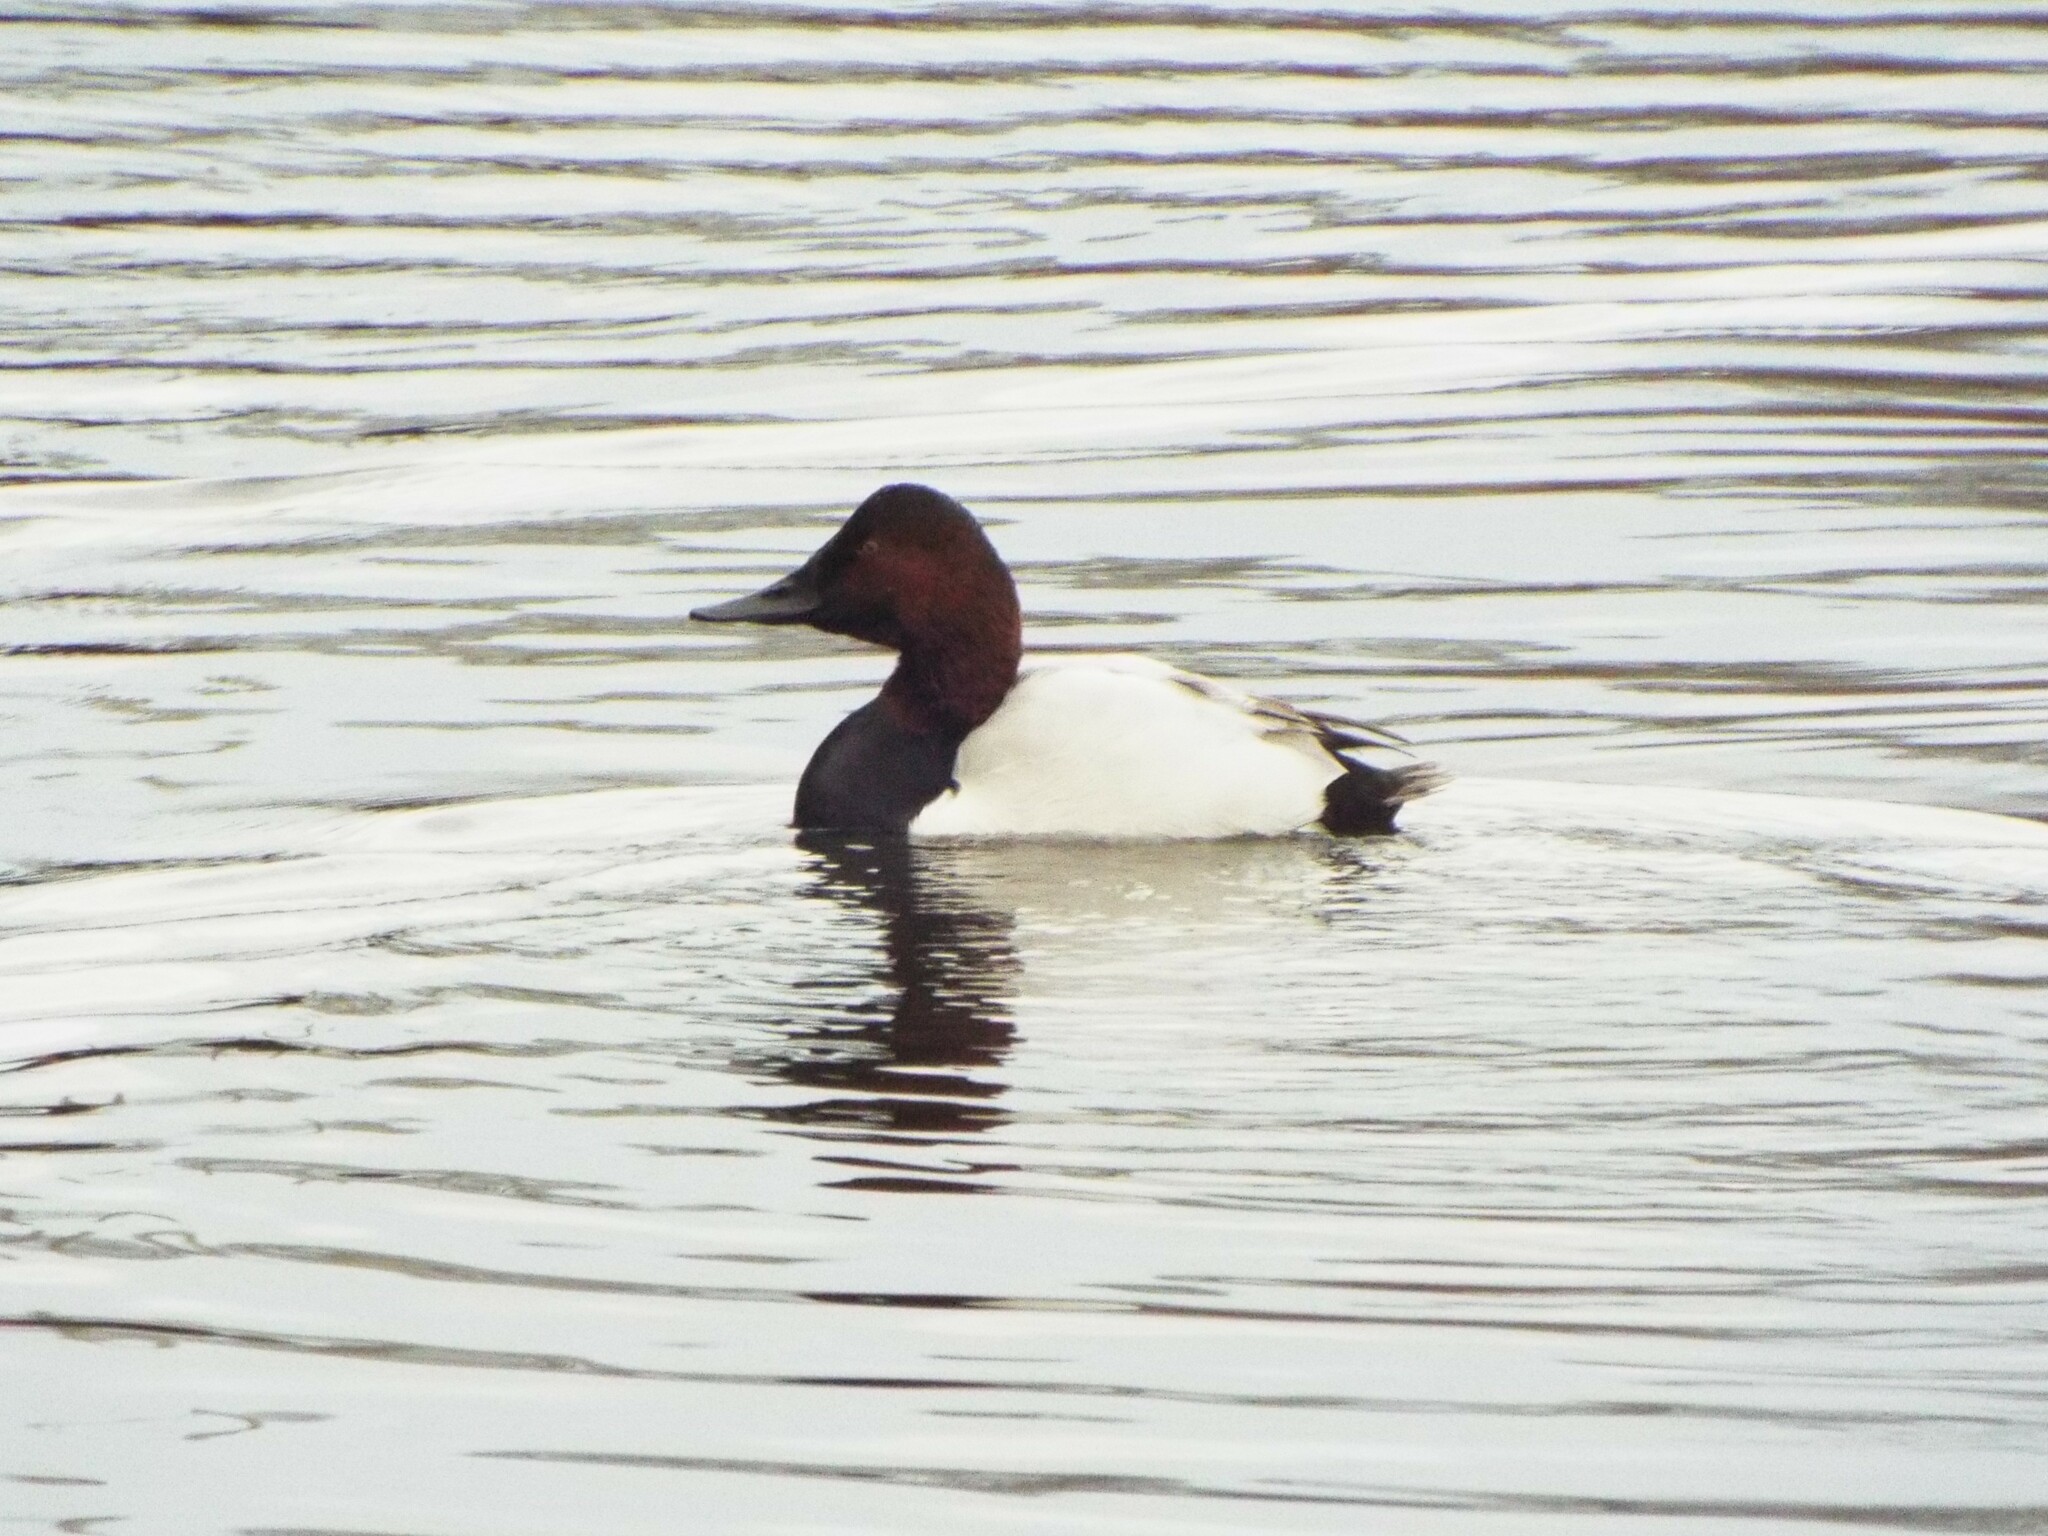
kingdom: Animalia
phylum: Chordata
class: Aves
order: Anseriformes
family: Anatidae
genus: Aythya
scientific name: Aythya valisineria
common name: Canvasback
